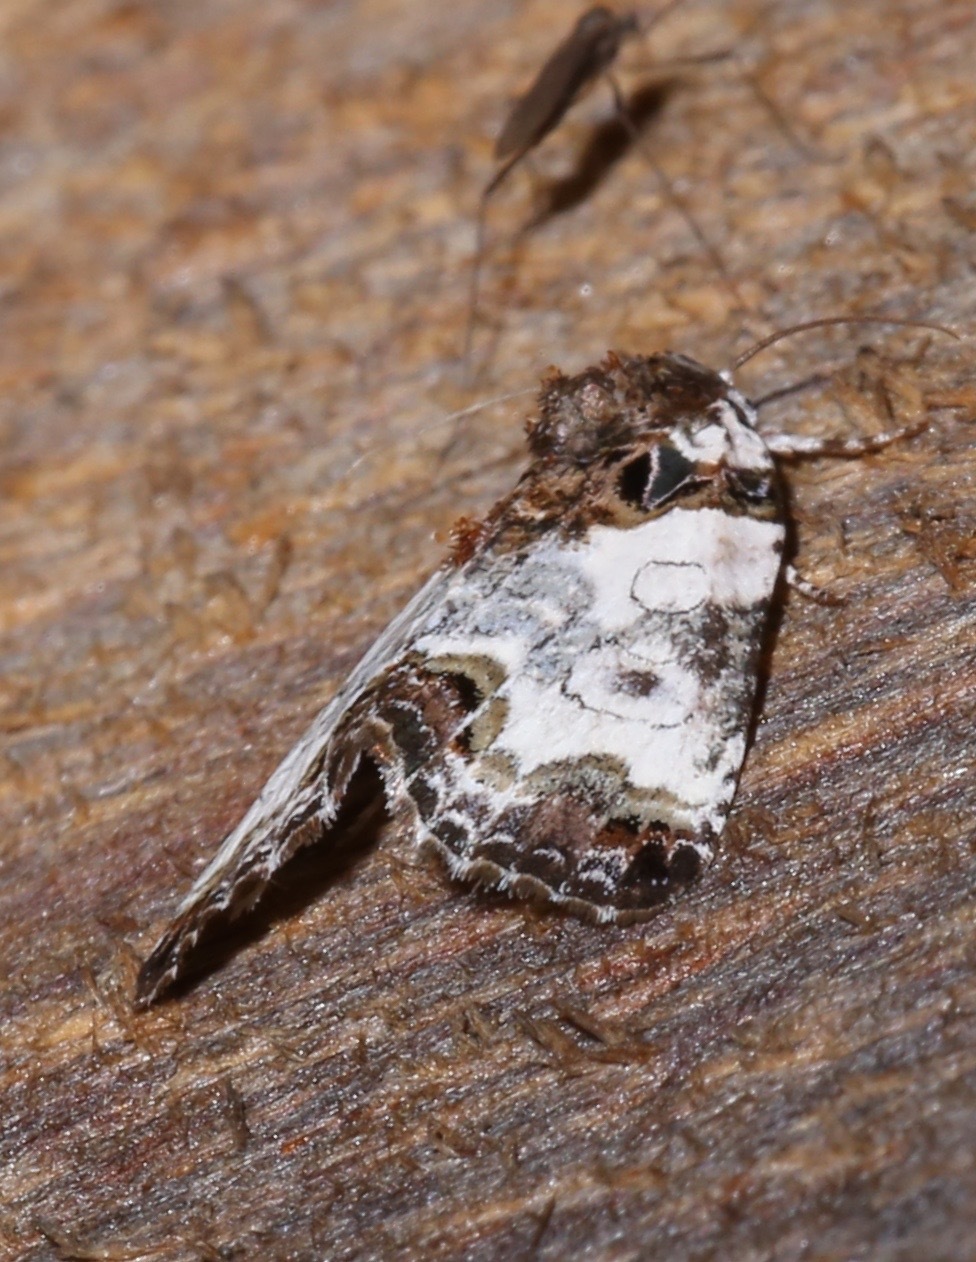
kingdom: Animalia
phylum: Arthropoda
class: Insecta
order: Lepidoptera
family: Noctuidae
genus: Cerma
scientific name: Cerma cerintha
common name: Tufted bird-dropping moth
